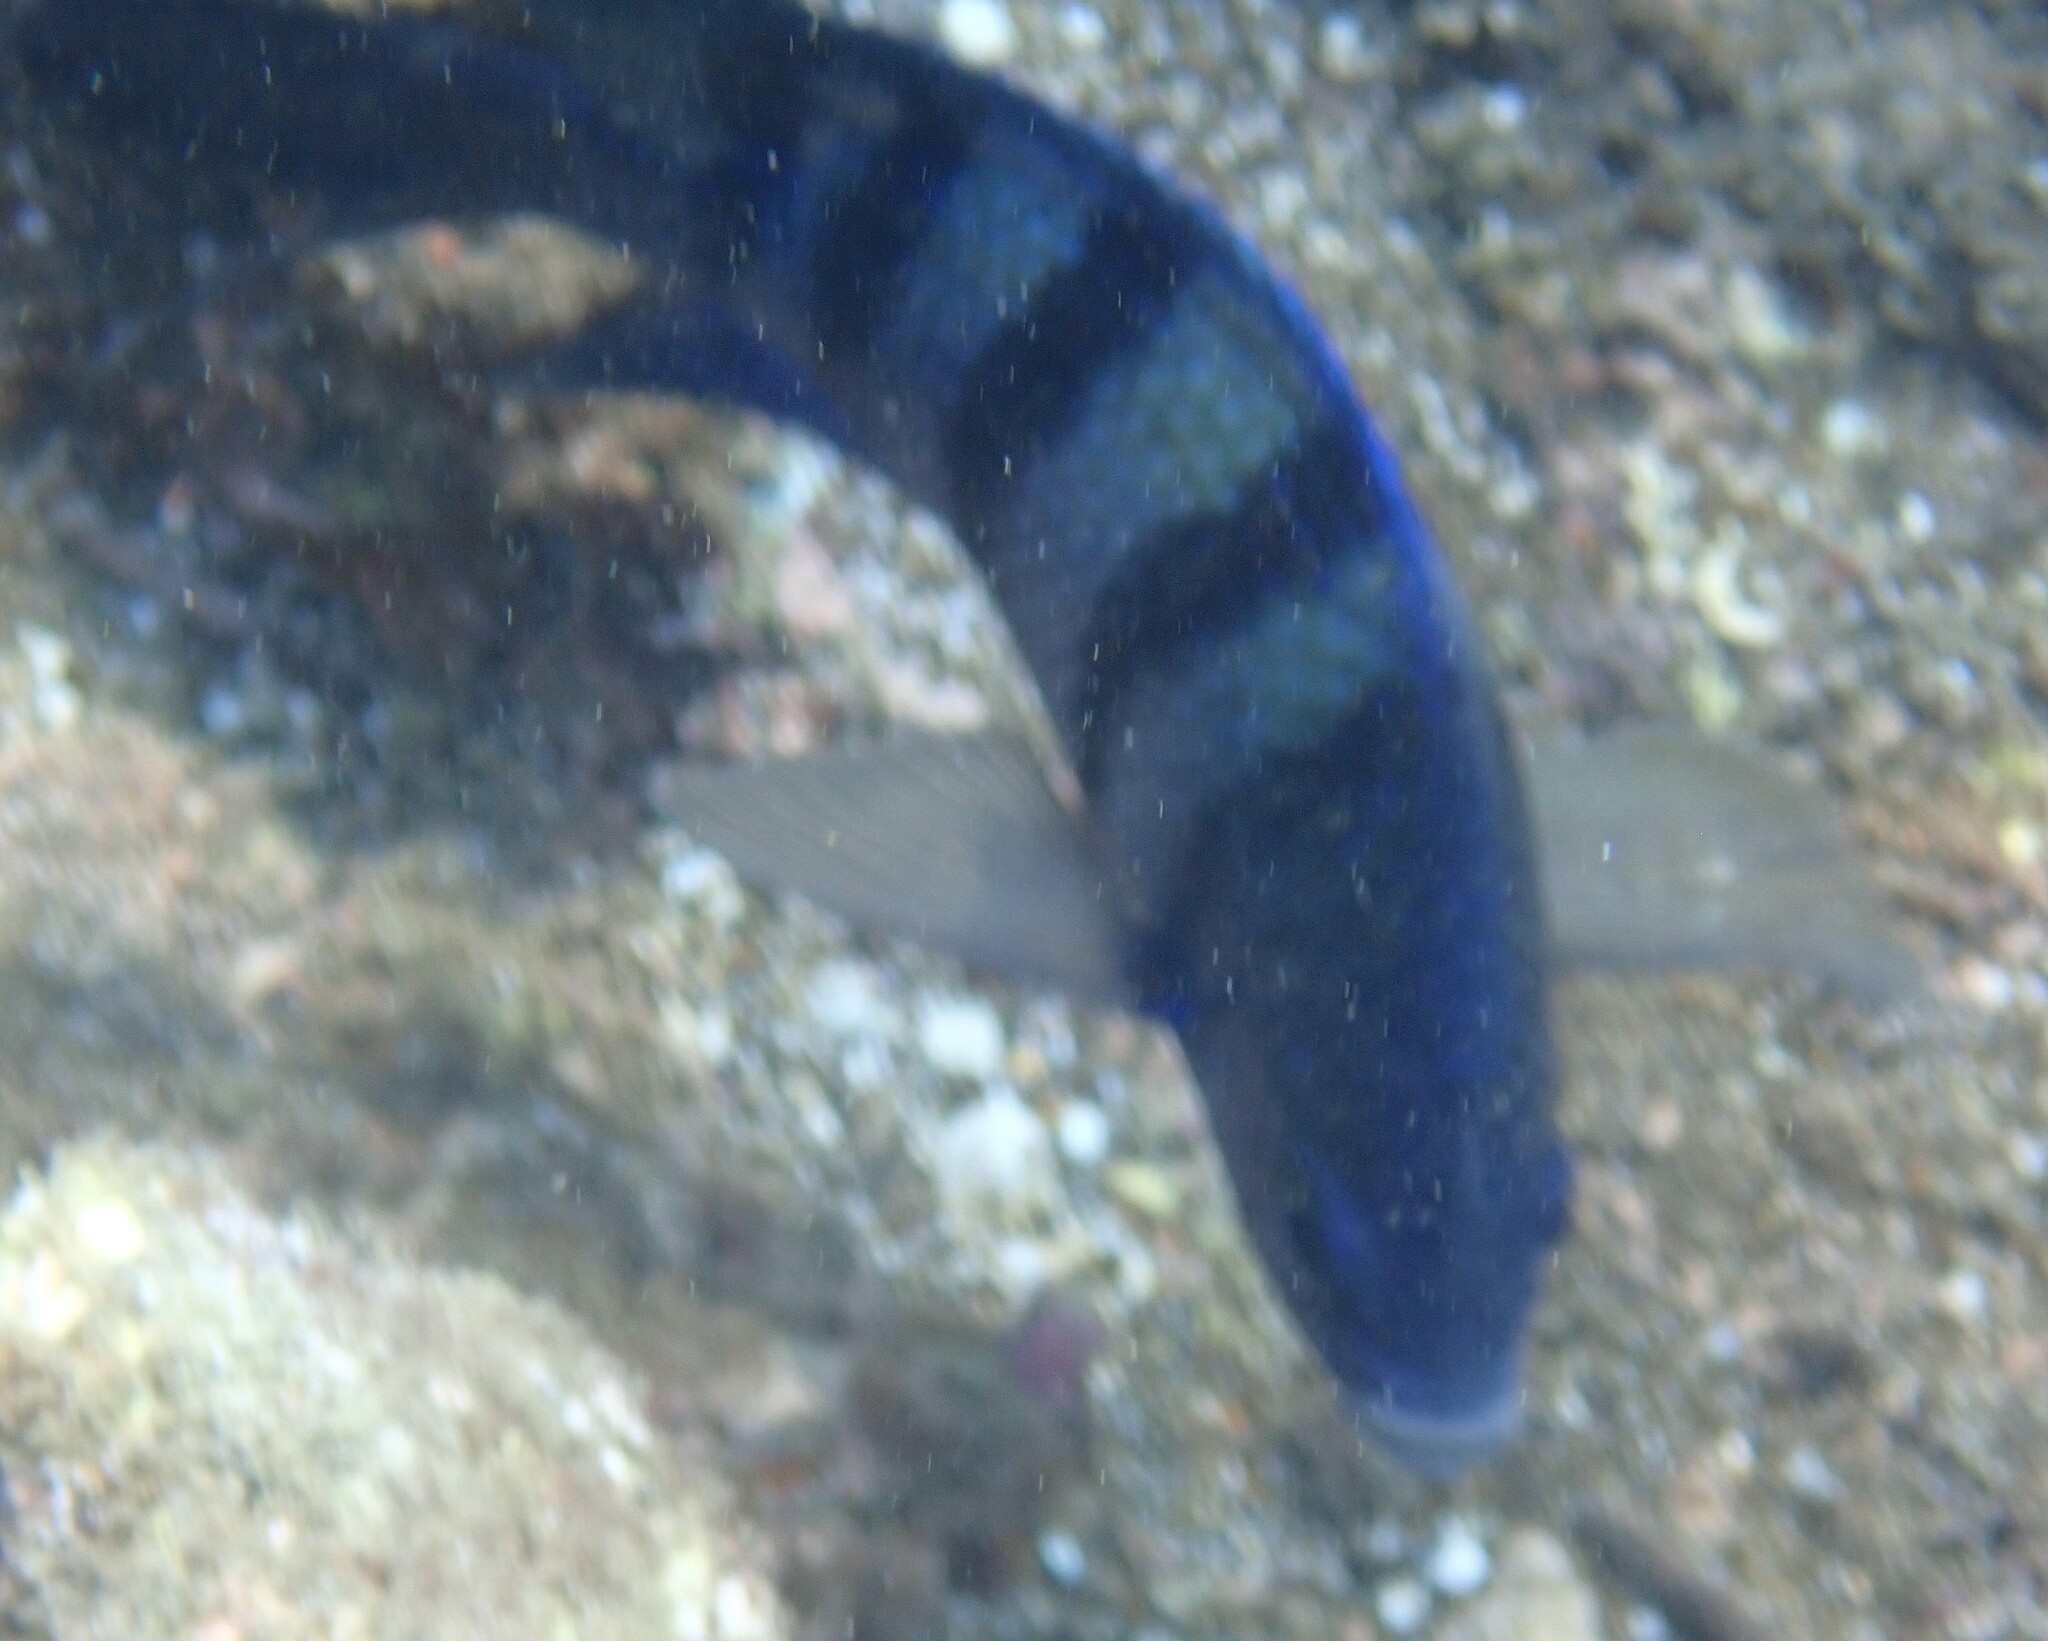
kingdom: Animalia
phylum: Chordata
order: Perciformes
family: Pomacentridae
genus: Abudefduf
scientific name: Abudefduf troschelii
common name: Panamic sergeant major
